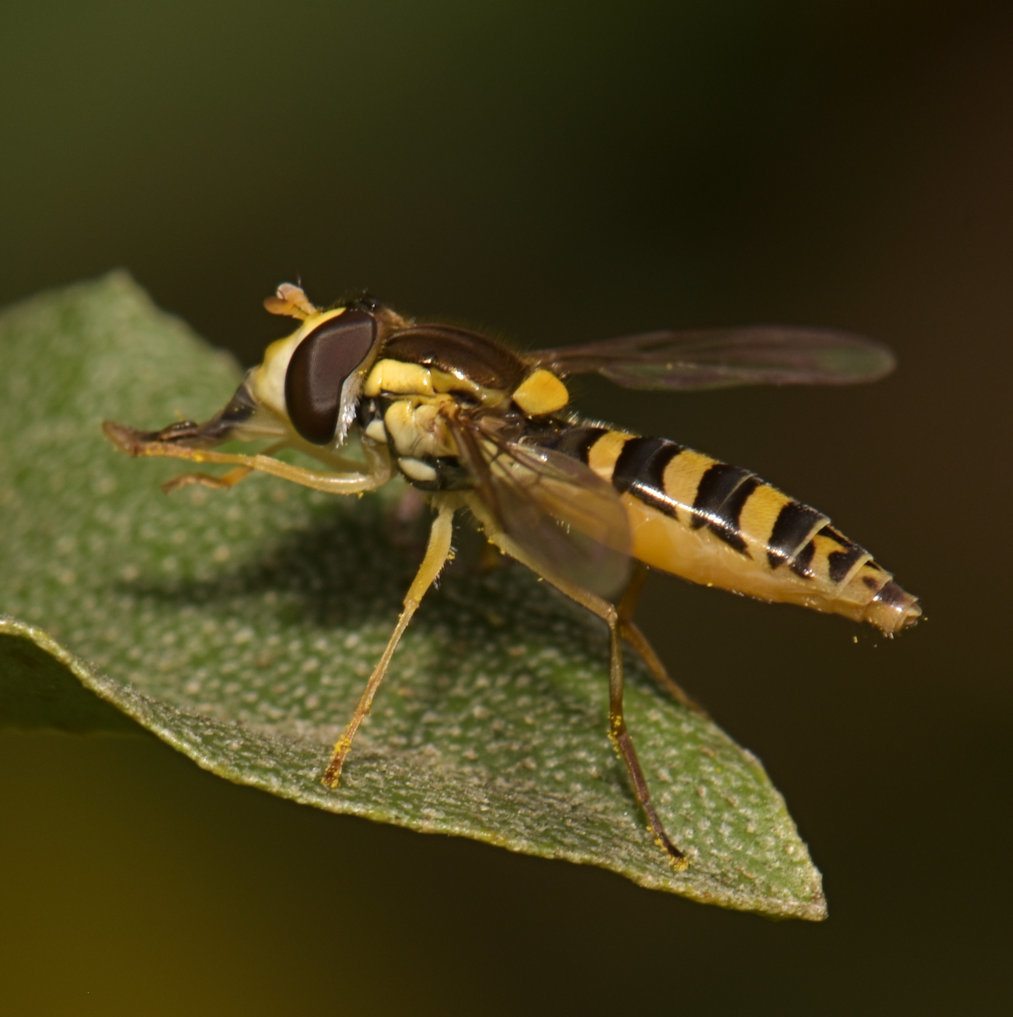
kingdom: Animalia
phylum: Arthropoda
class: Insecta
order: Diptera
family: Syrphidae
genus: Sphaerophoria
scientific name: Sphaerophoria
